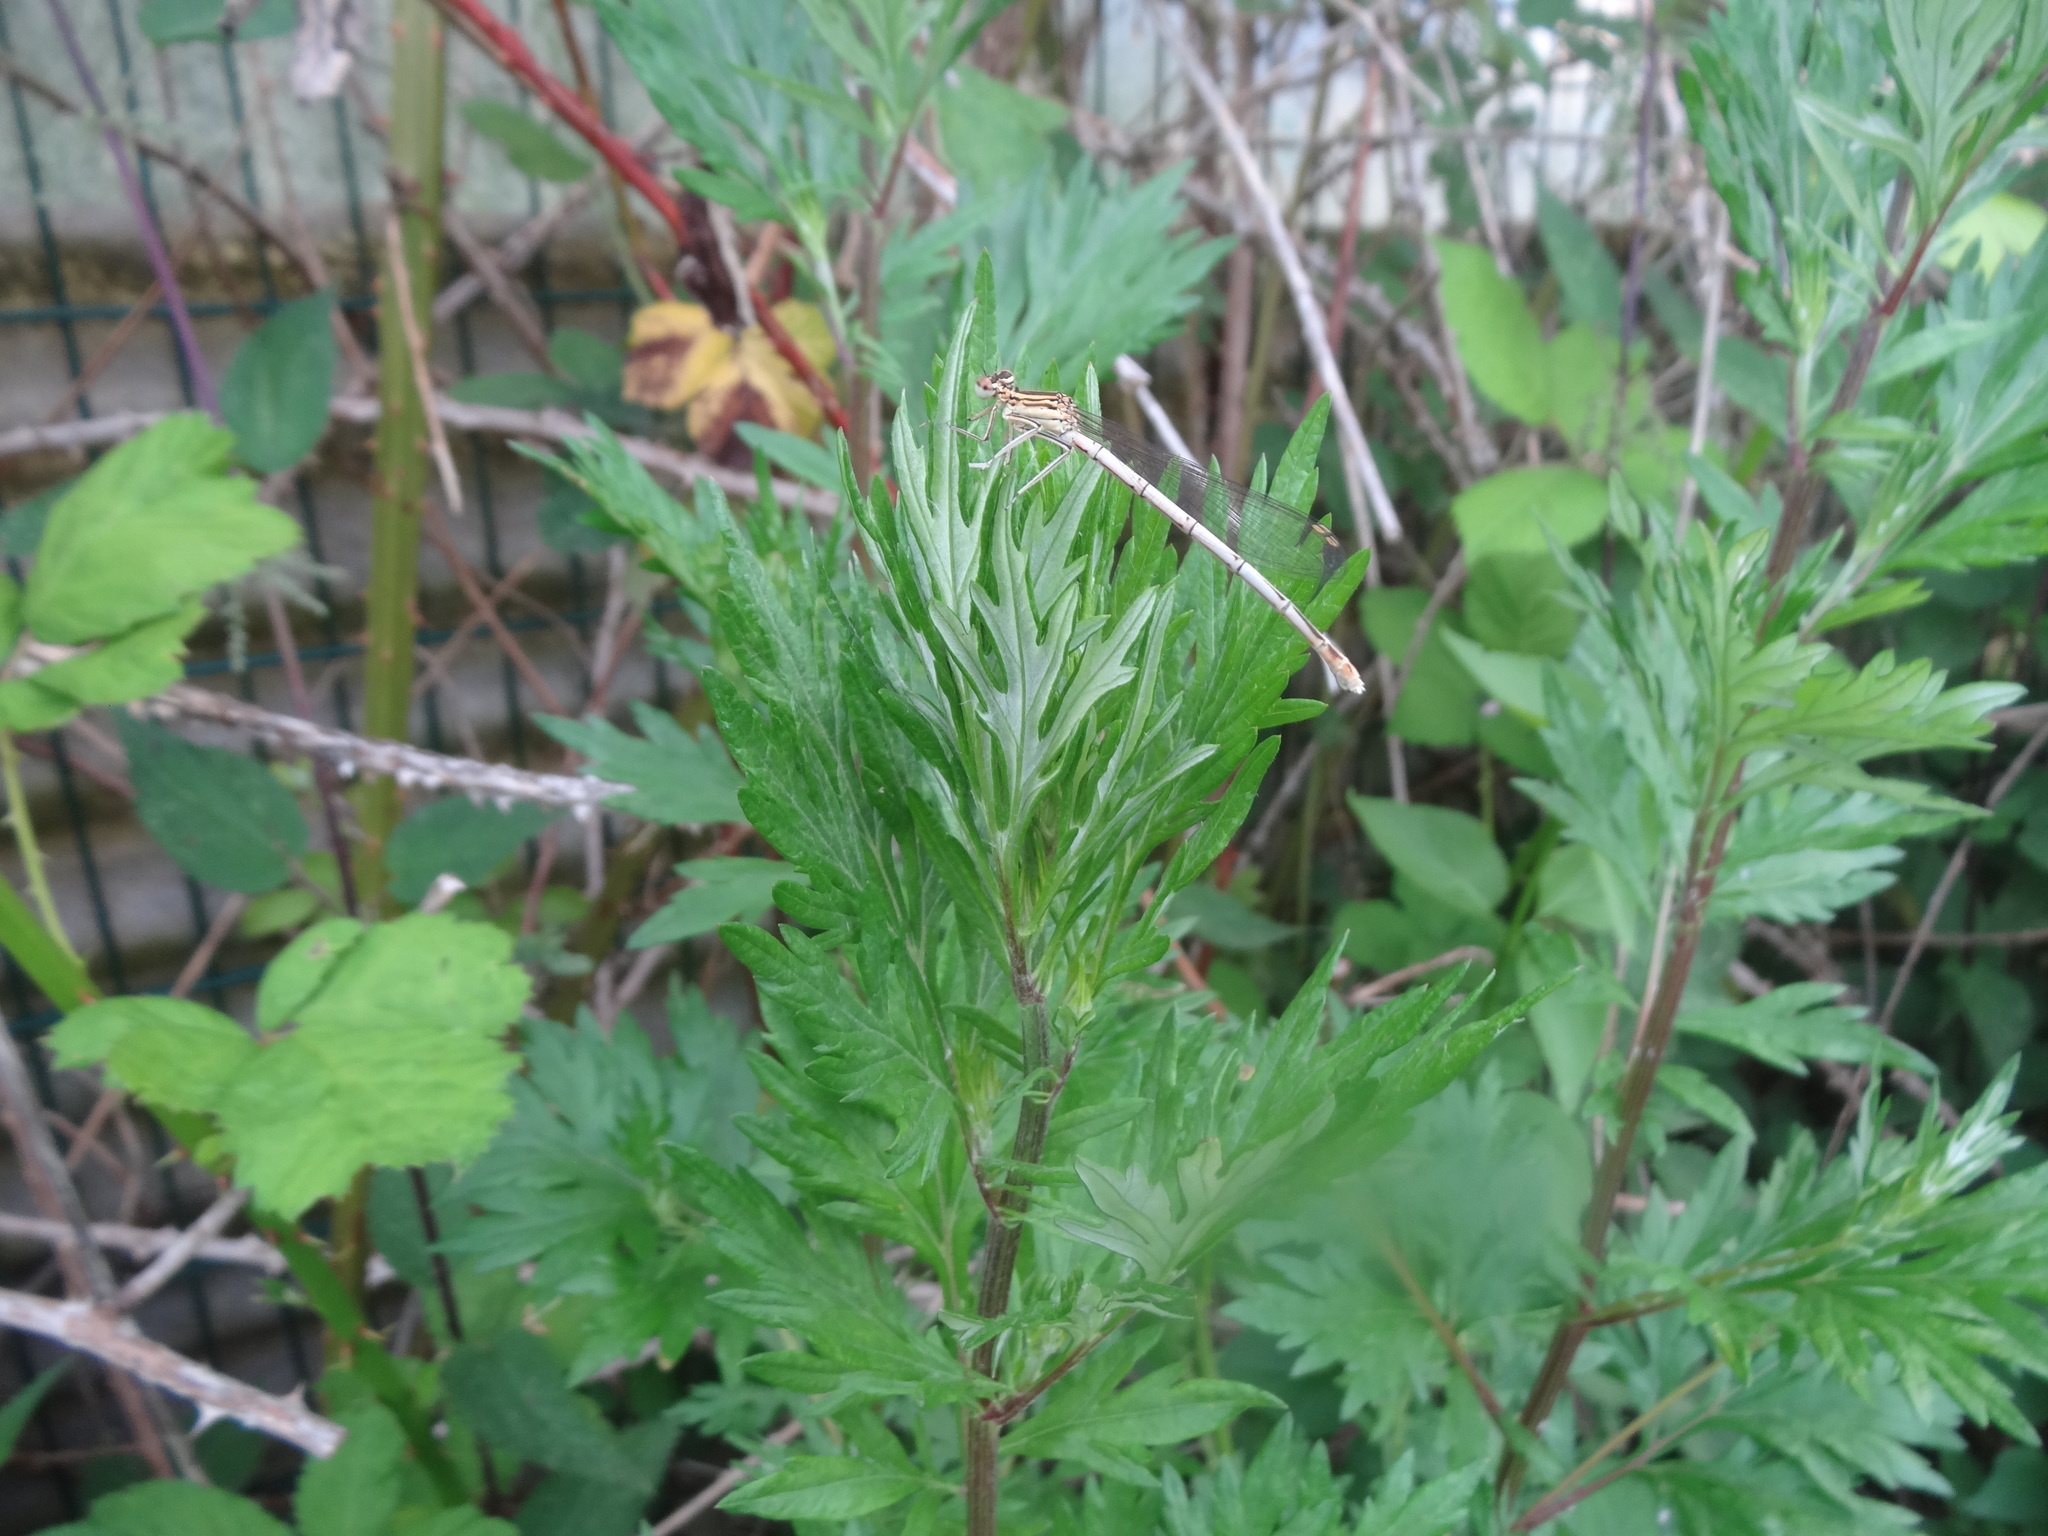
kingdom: Animalia
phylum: Arthropoda
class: Insecta
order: Odonata
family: Platycnemididae
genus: Platycnemis
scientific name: Platycnemis pennipes
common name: White-legged damselfly
